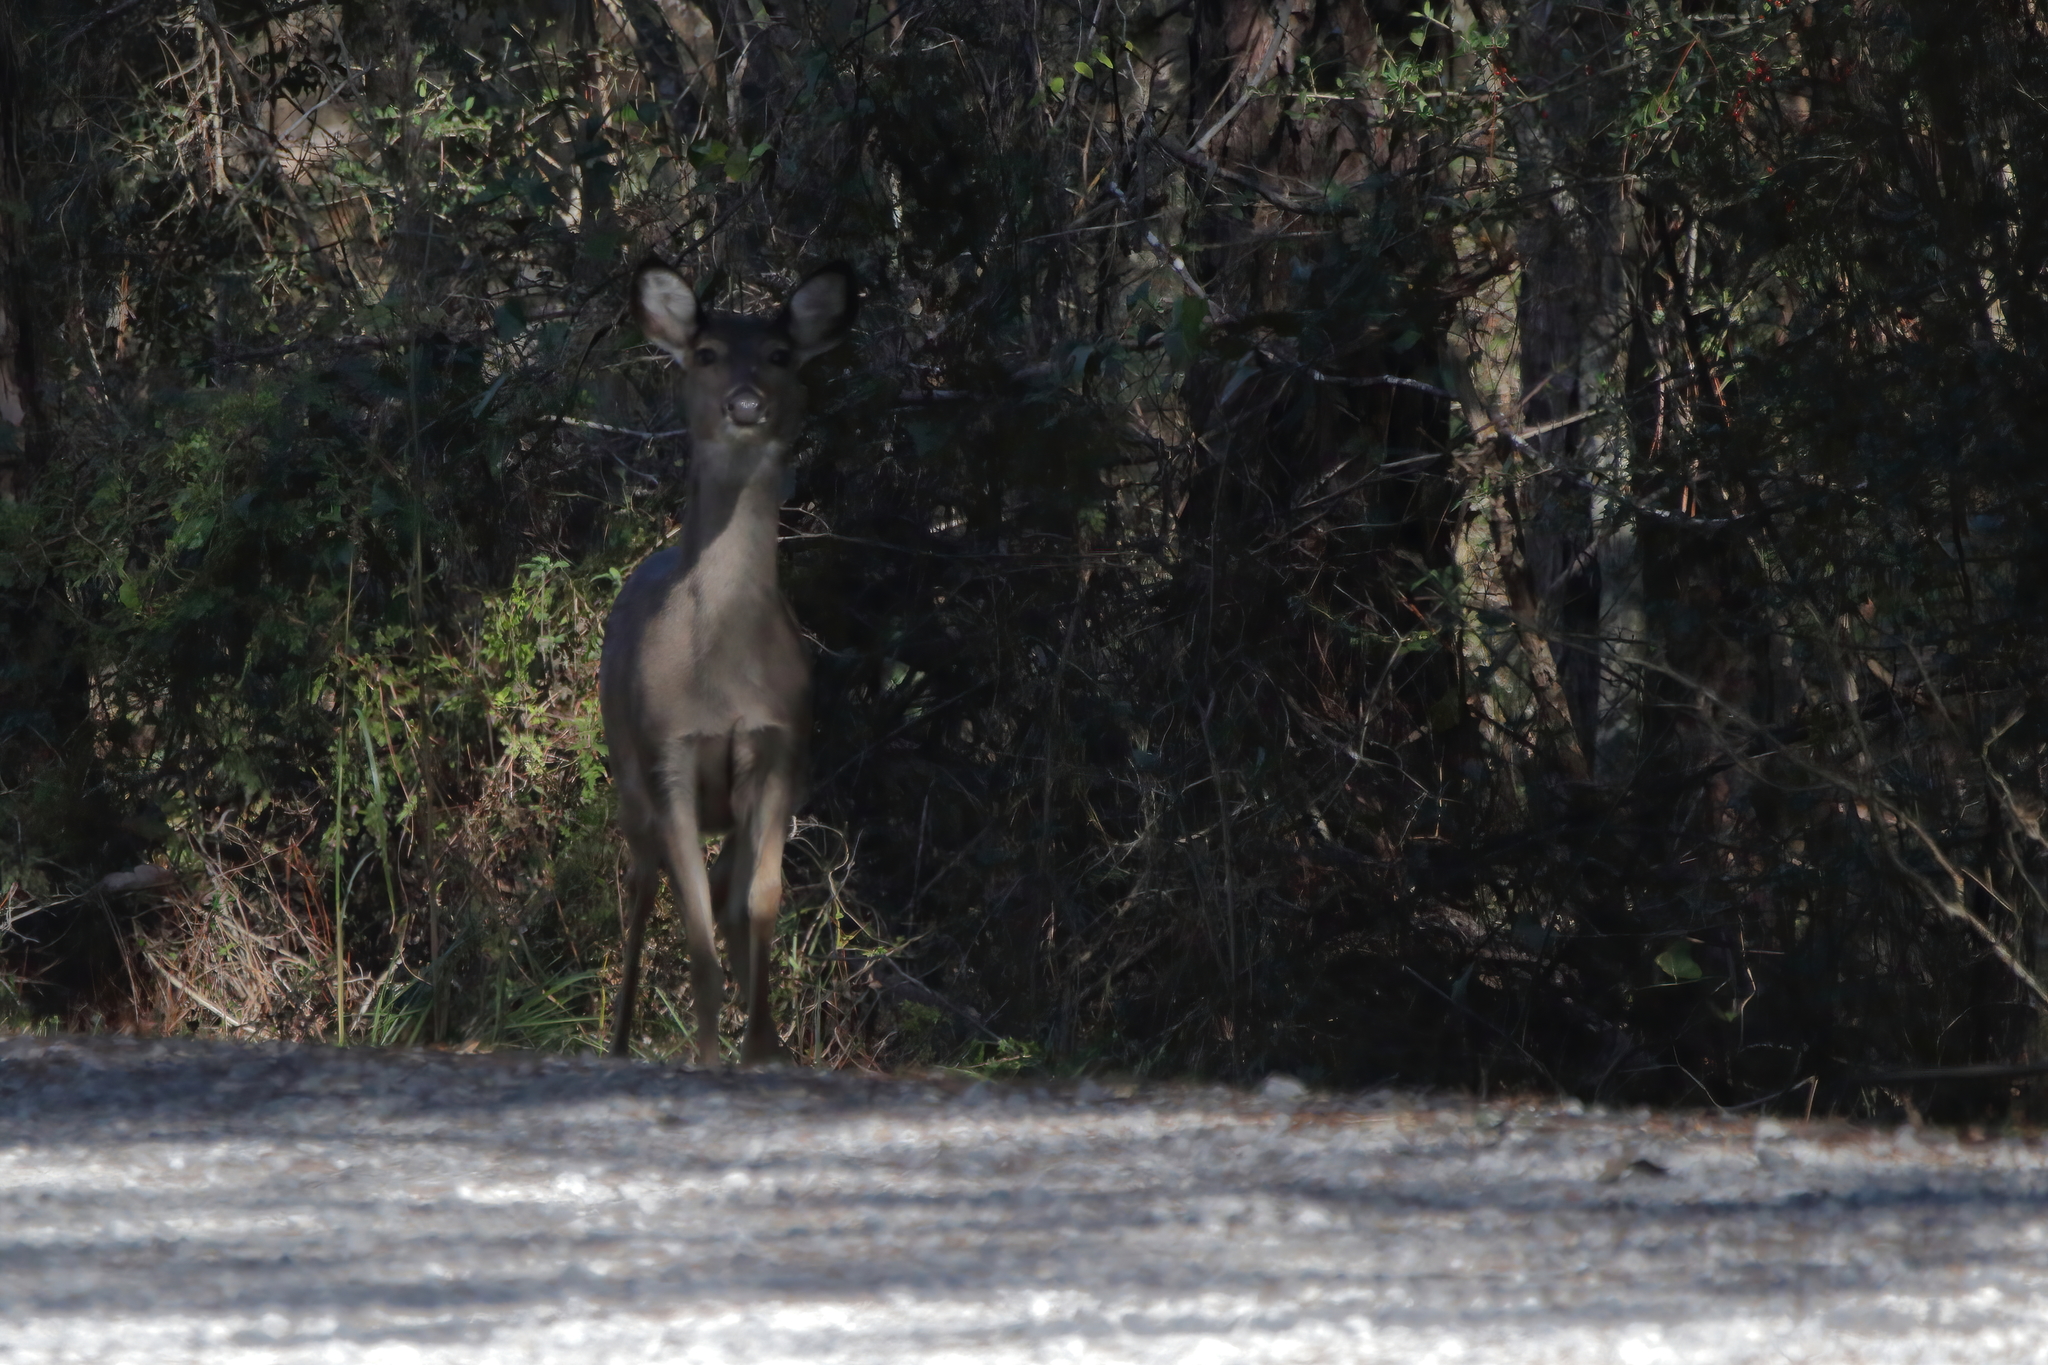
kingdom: Animalia
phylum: Chordata
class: Mammalia
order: Artiodactyla
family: Cervidae
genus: Odocoileus
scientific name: Odocoileus virginianus
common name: White-tailed deer
